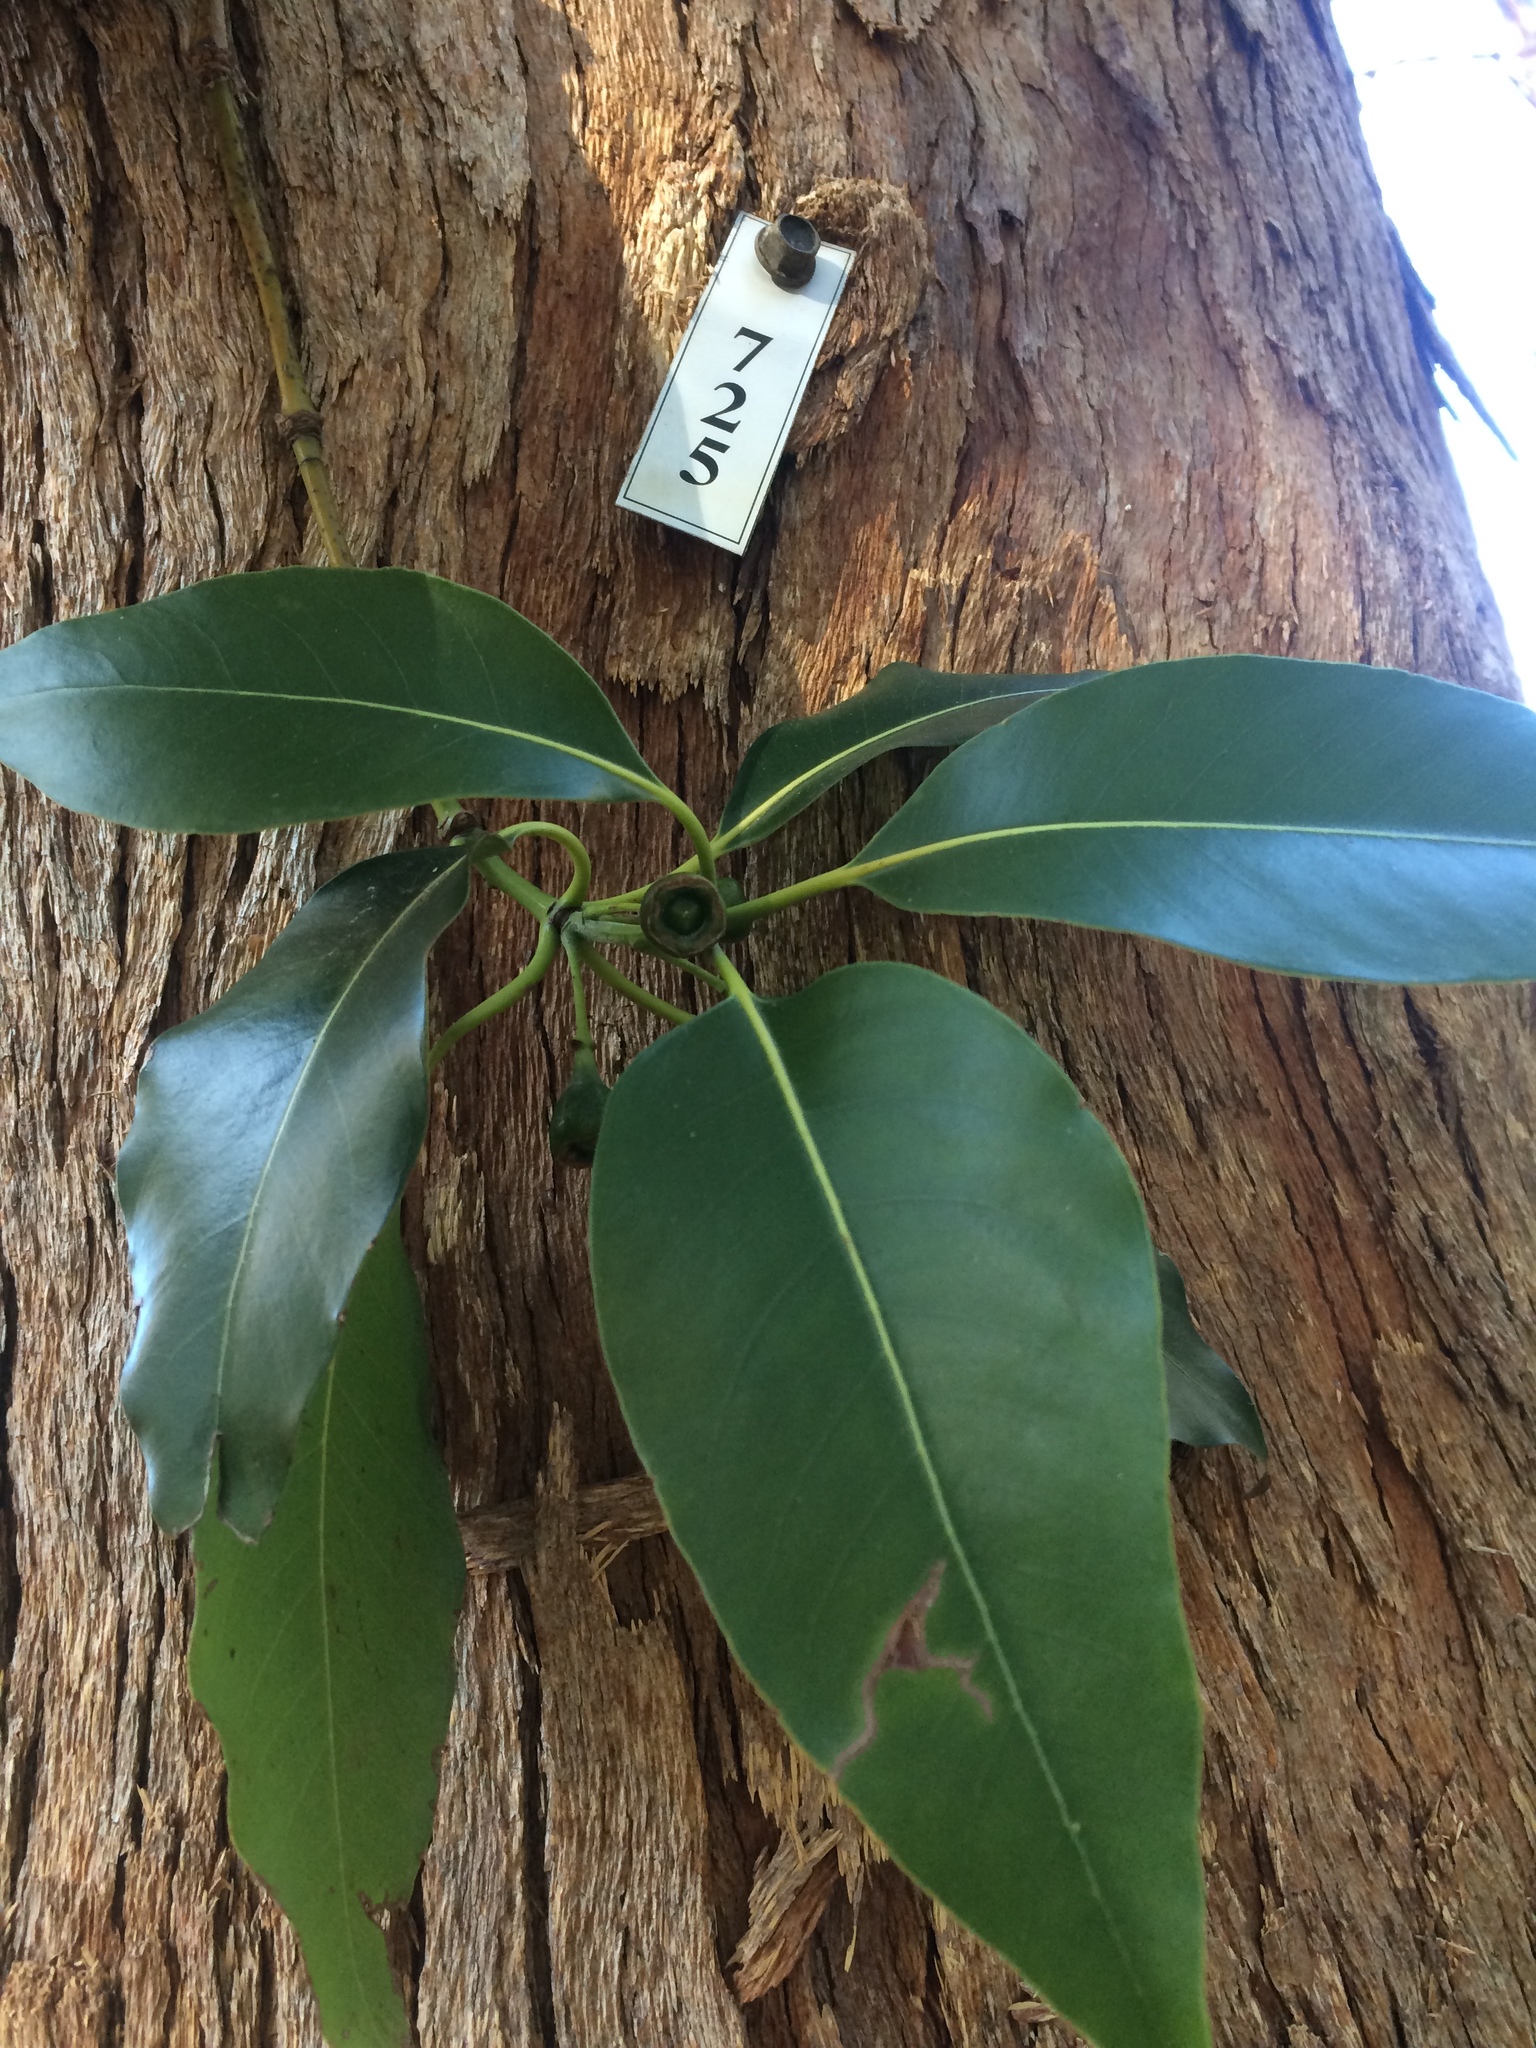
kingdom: Plantae
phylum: Tracheophyta
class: Magnoliopsida
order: Myrtales
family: Myrtaceae
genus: Lophostemon
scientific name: Lophostemon confertus
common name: Brisbane box
